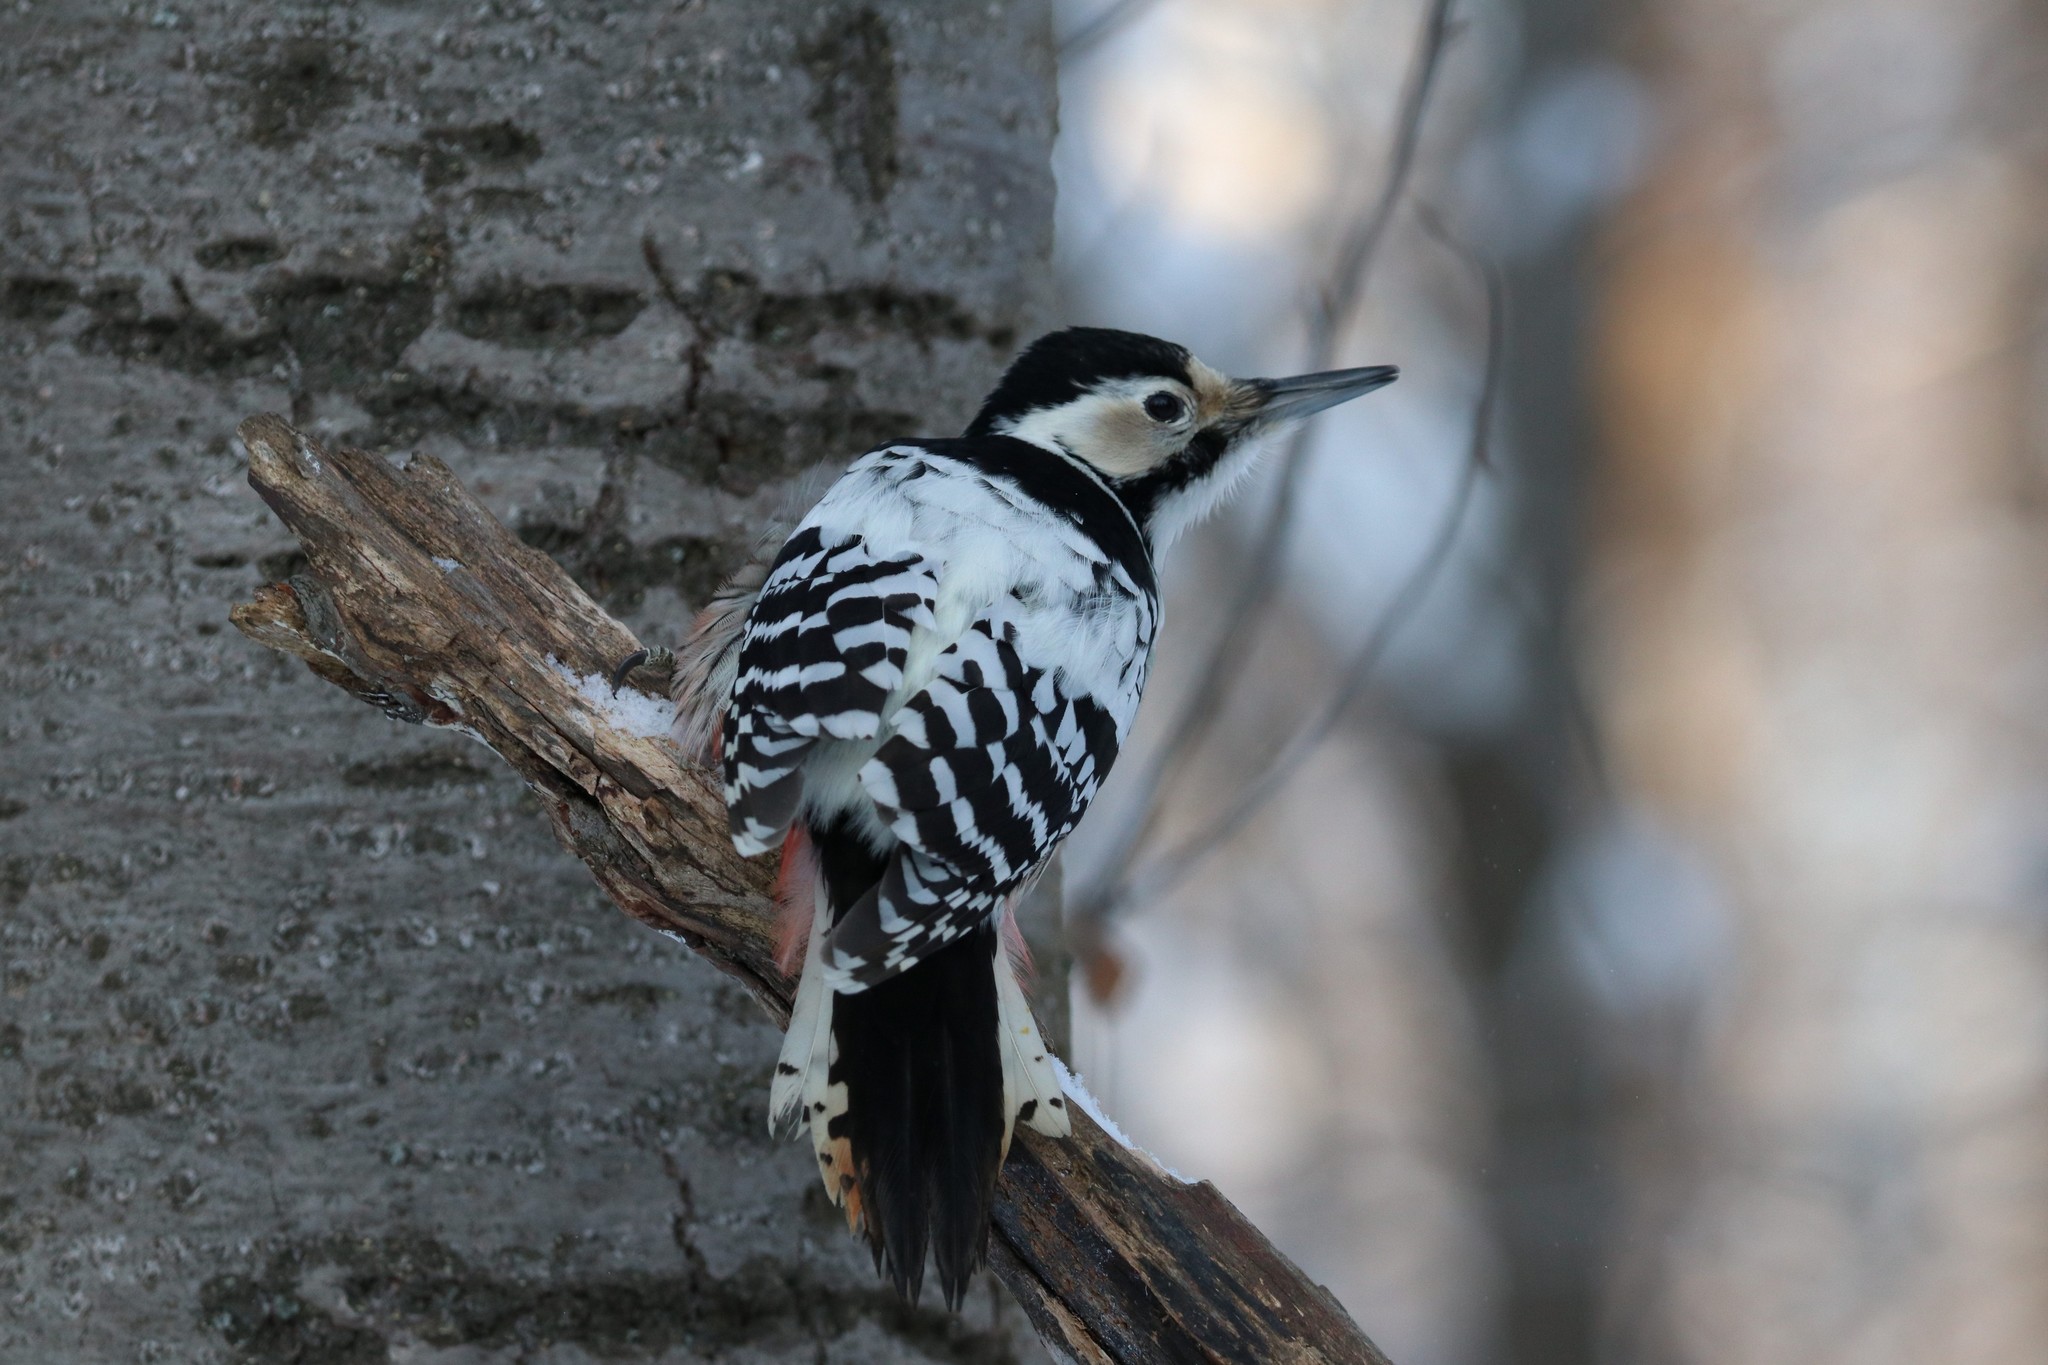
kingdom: Animalia
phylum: Chordata
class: Aves
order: Piciformes
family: Picidae
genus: Dendrocopos
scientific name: Dendrocopos leucotos
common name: White-backed woodpecker
